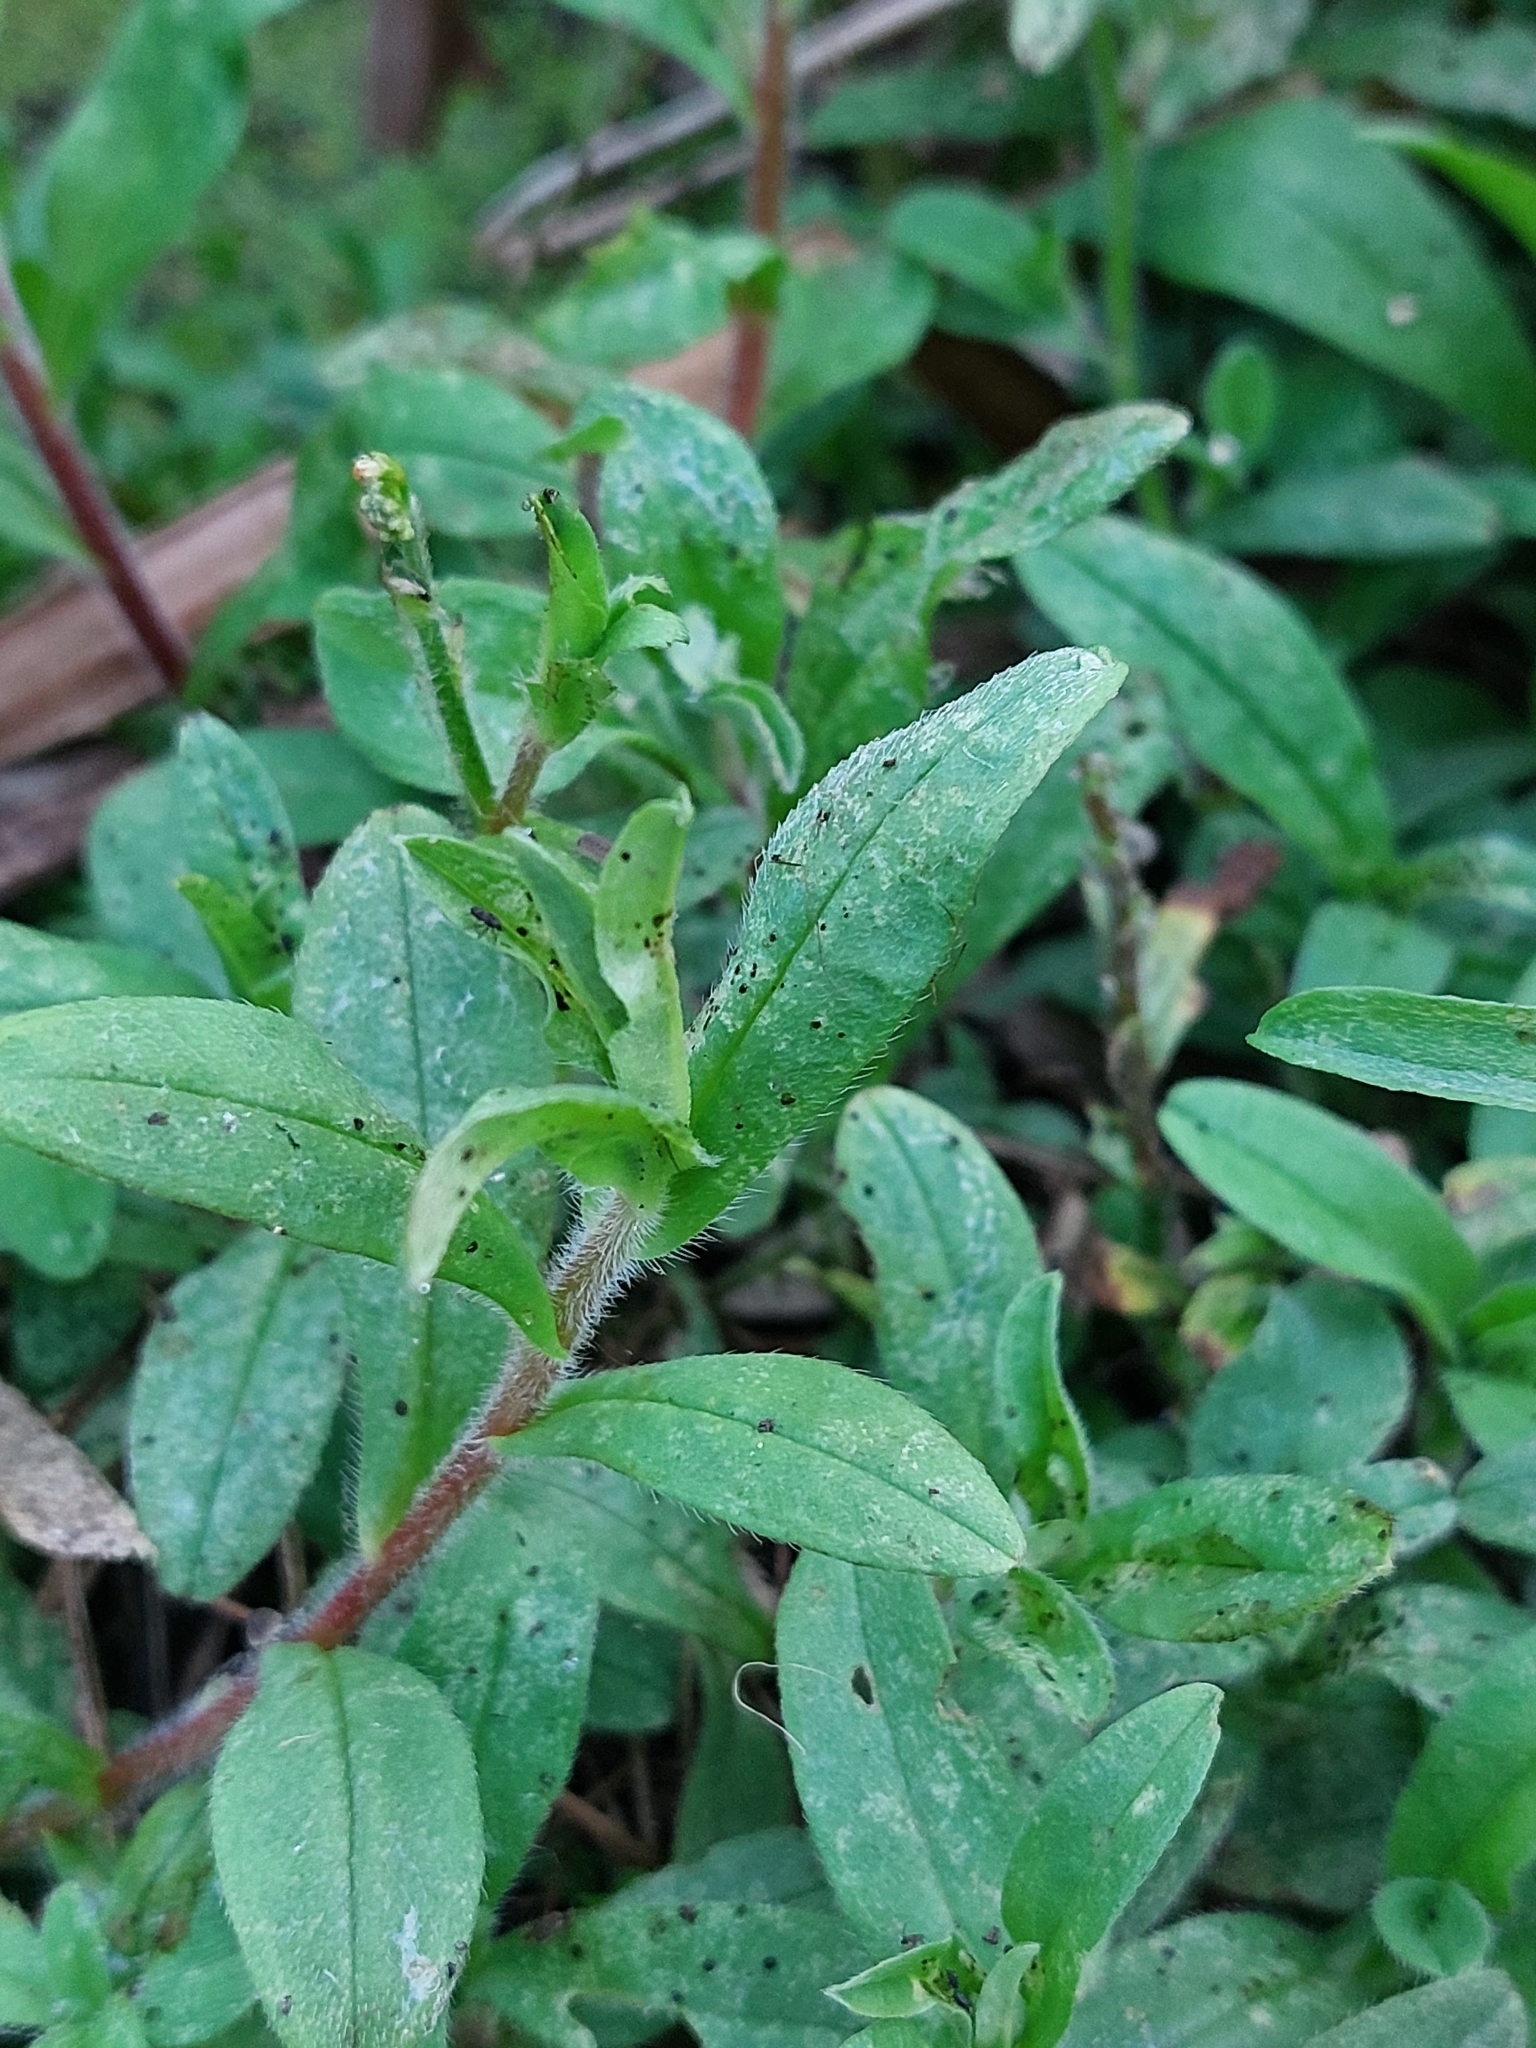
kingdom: Plantae
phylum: Tracheophyta
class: Magnoliopsida
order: Boraginales
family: Boraginaceae
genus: Myosotis
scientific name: Myosotis scorpioides
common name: Water forget-me-not
